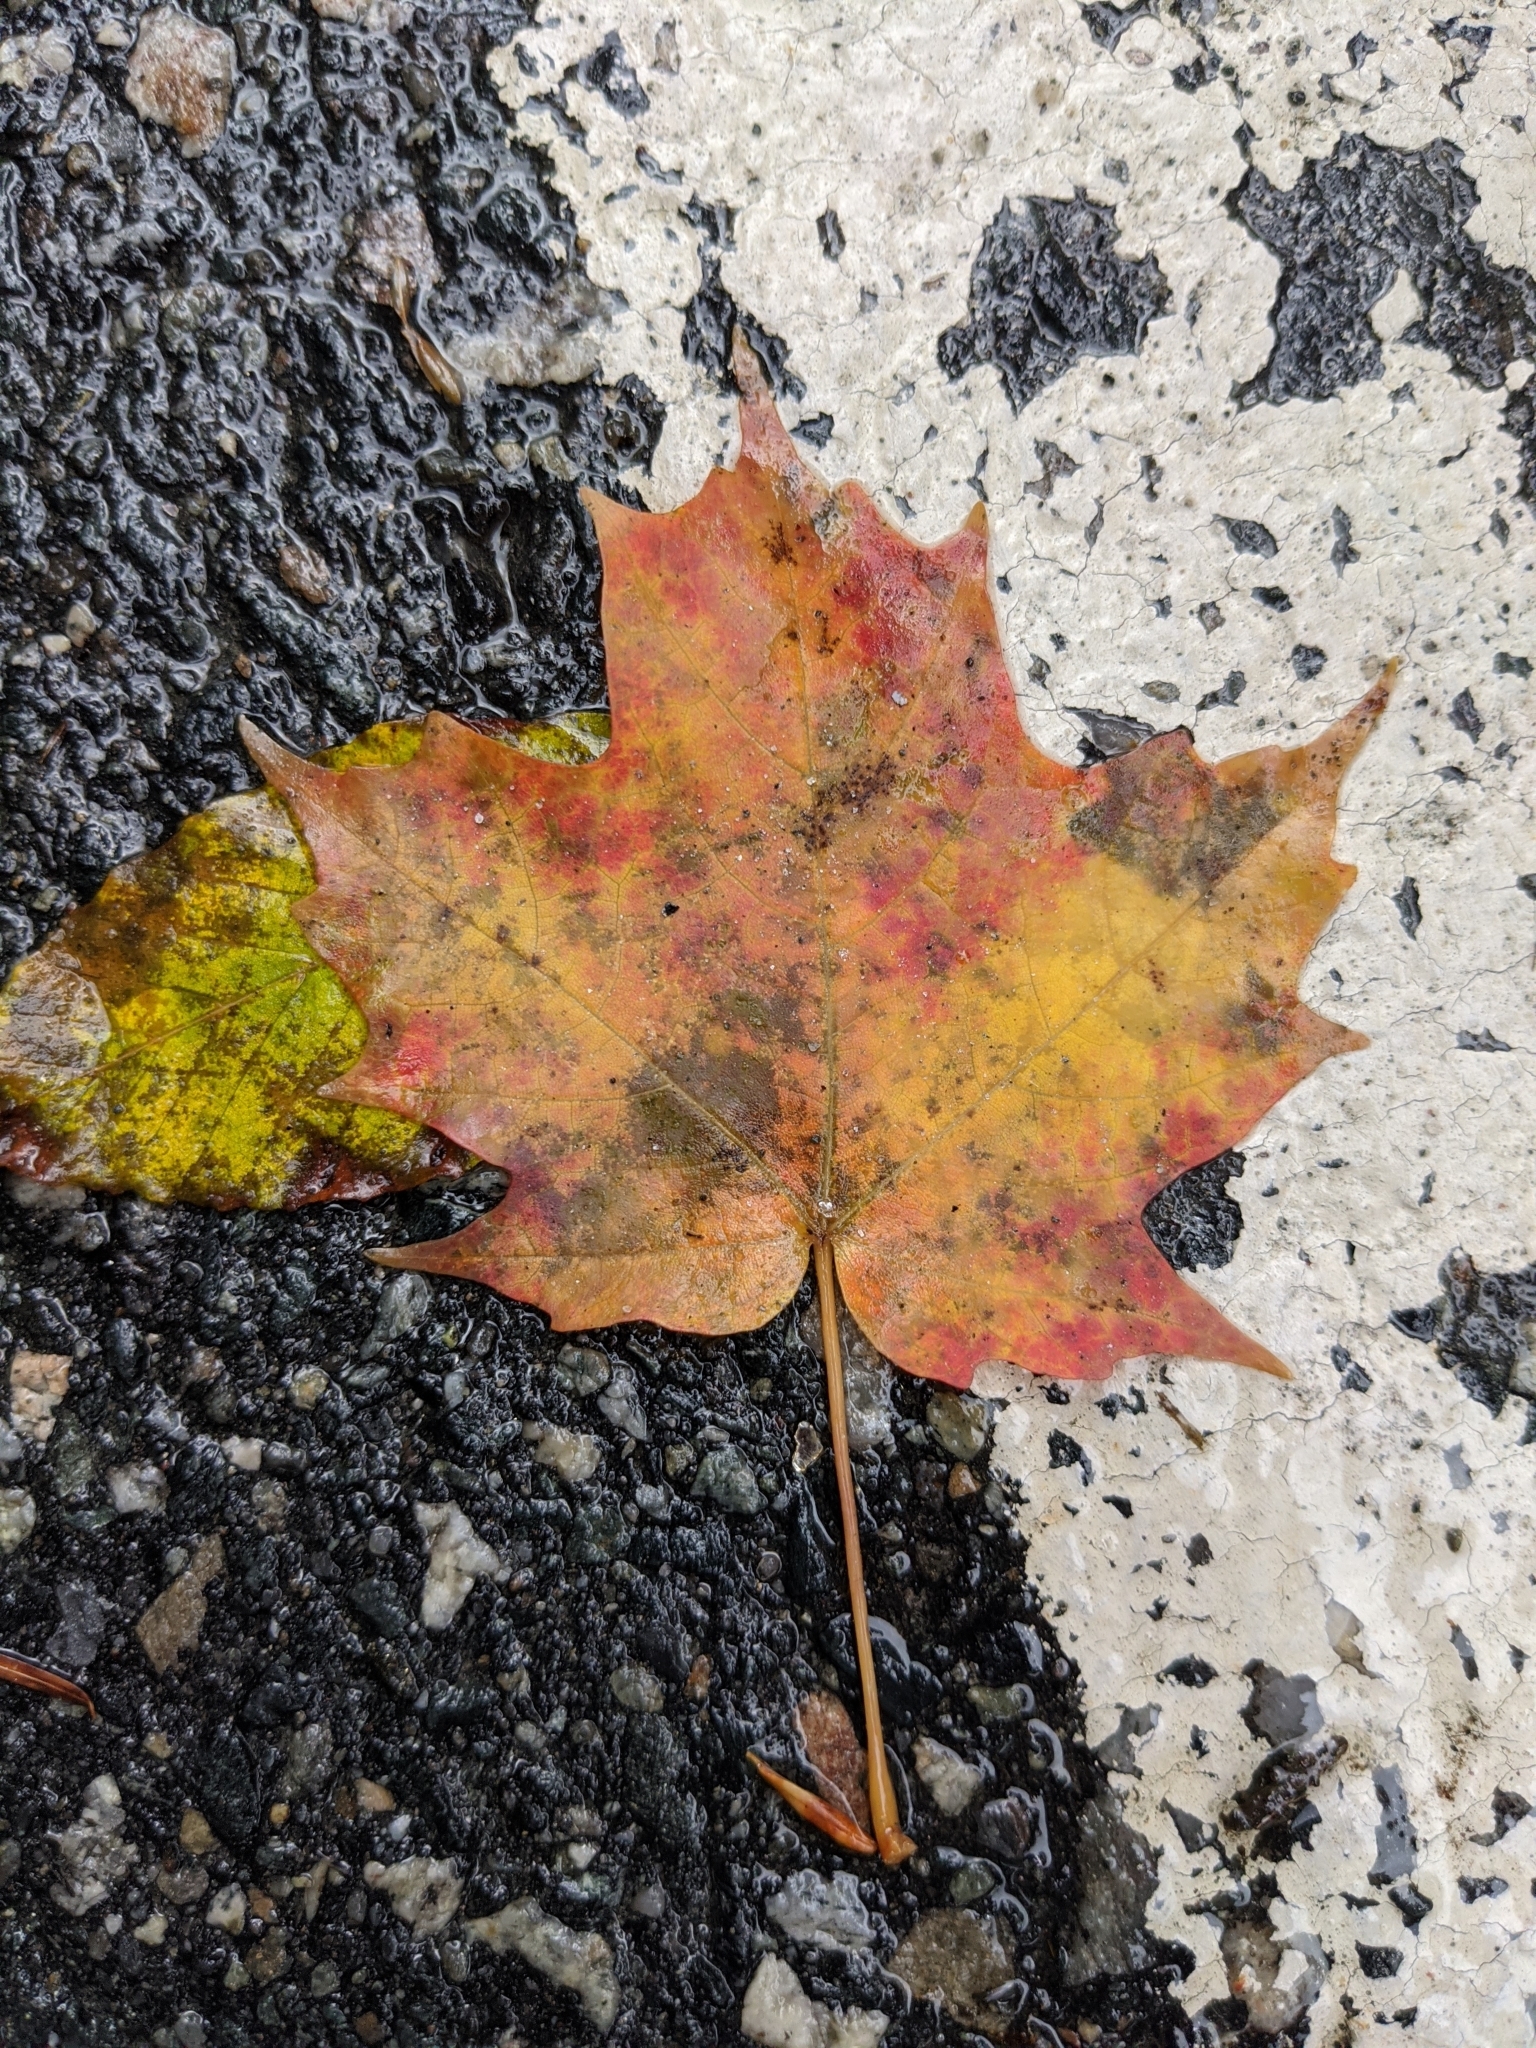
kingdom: Plantae
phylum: Tracheophyta
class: Magnoliopsida
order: Sapindales
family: Sapindaceae
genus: Acer
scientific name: Acer saccharum
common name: Sugar maple
